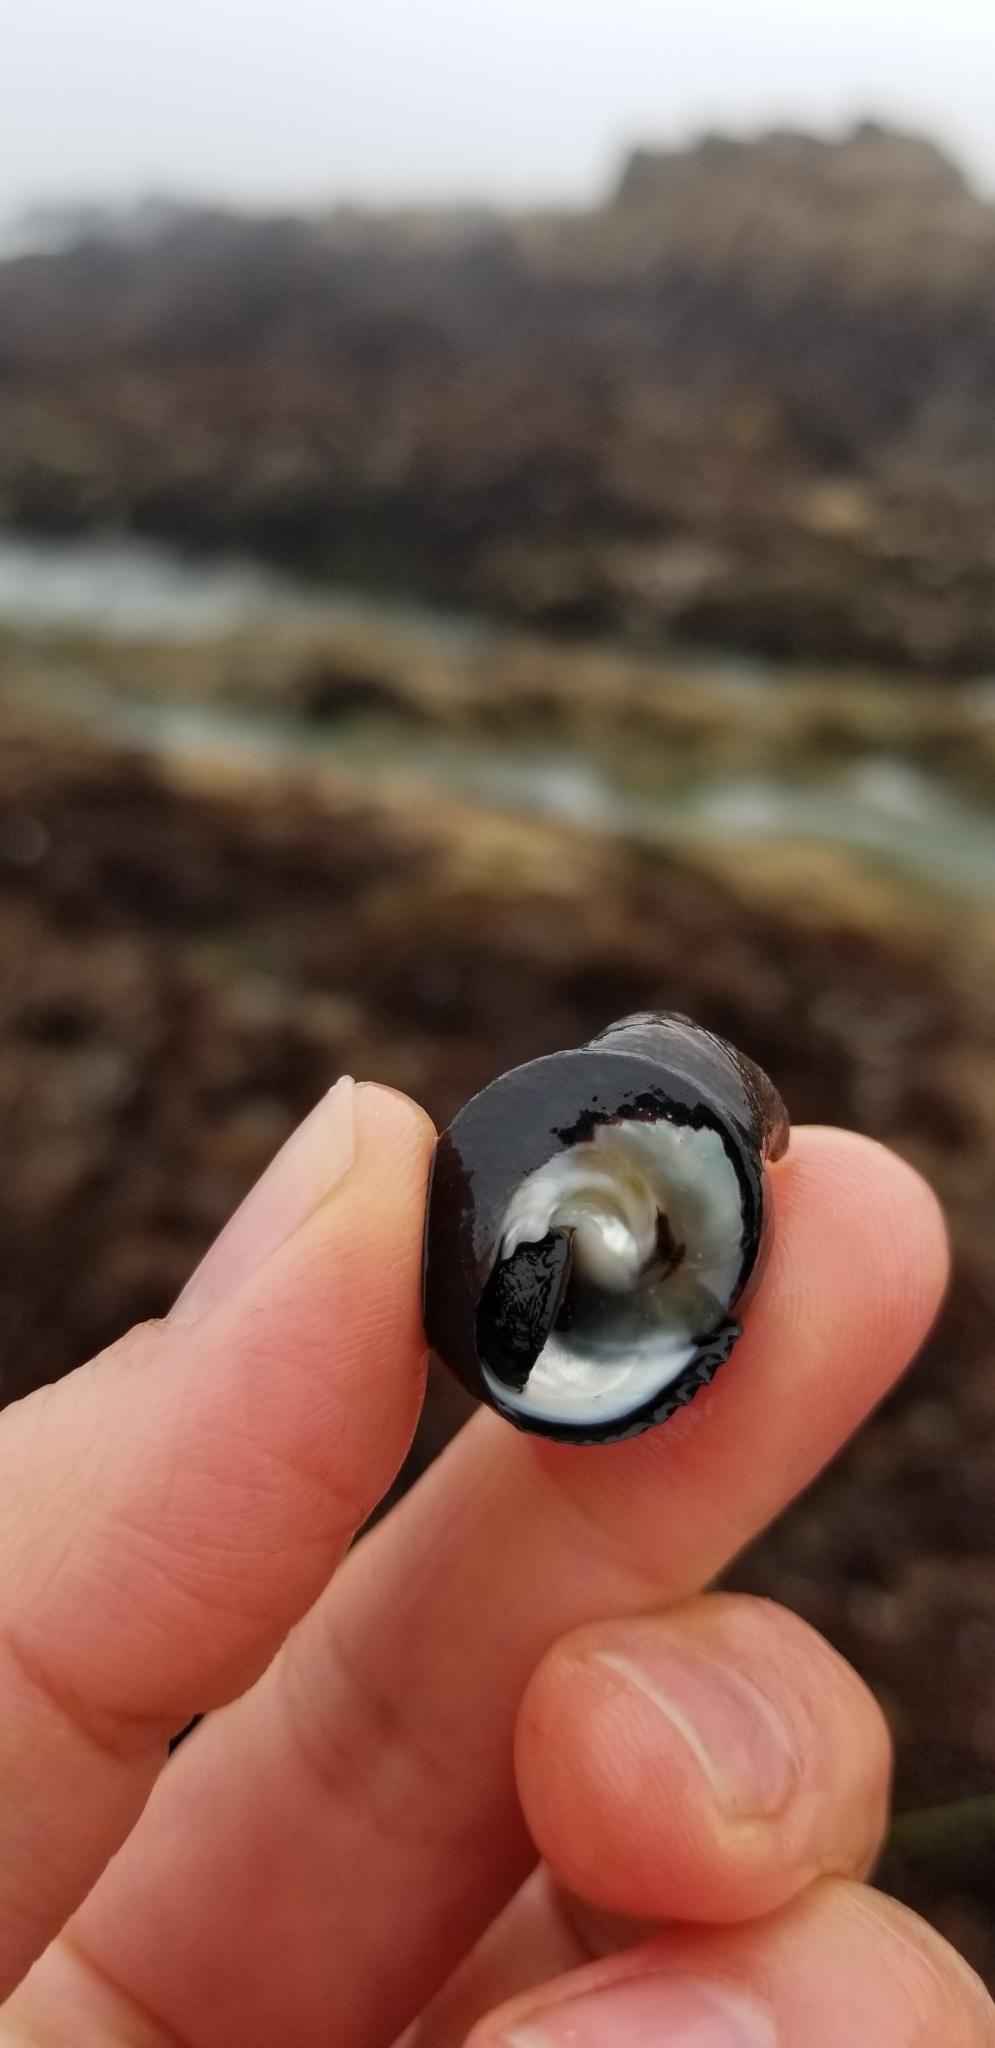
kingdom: Animalia
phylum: Mollusca
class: Gastropoda
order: Trochida
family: Tegulidae
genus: Tegula
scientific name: Tegula funebralis
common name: Black tegula
